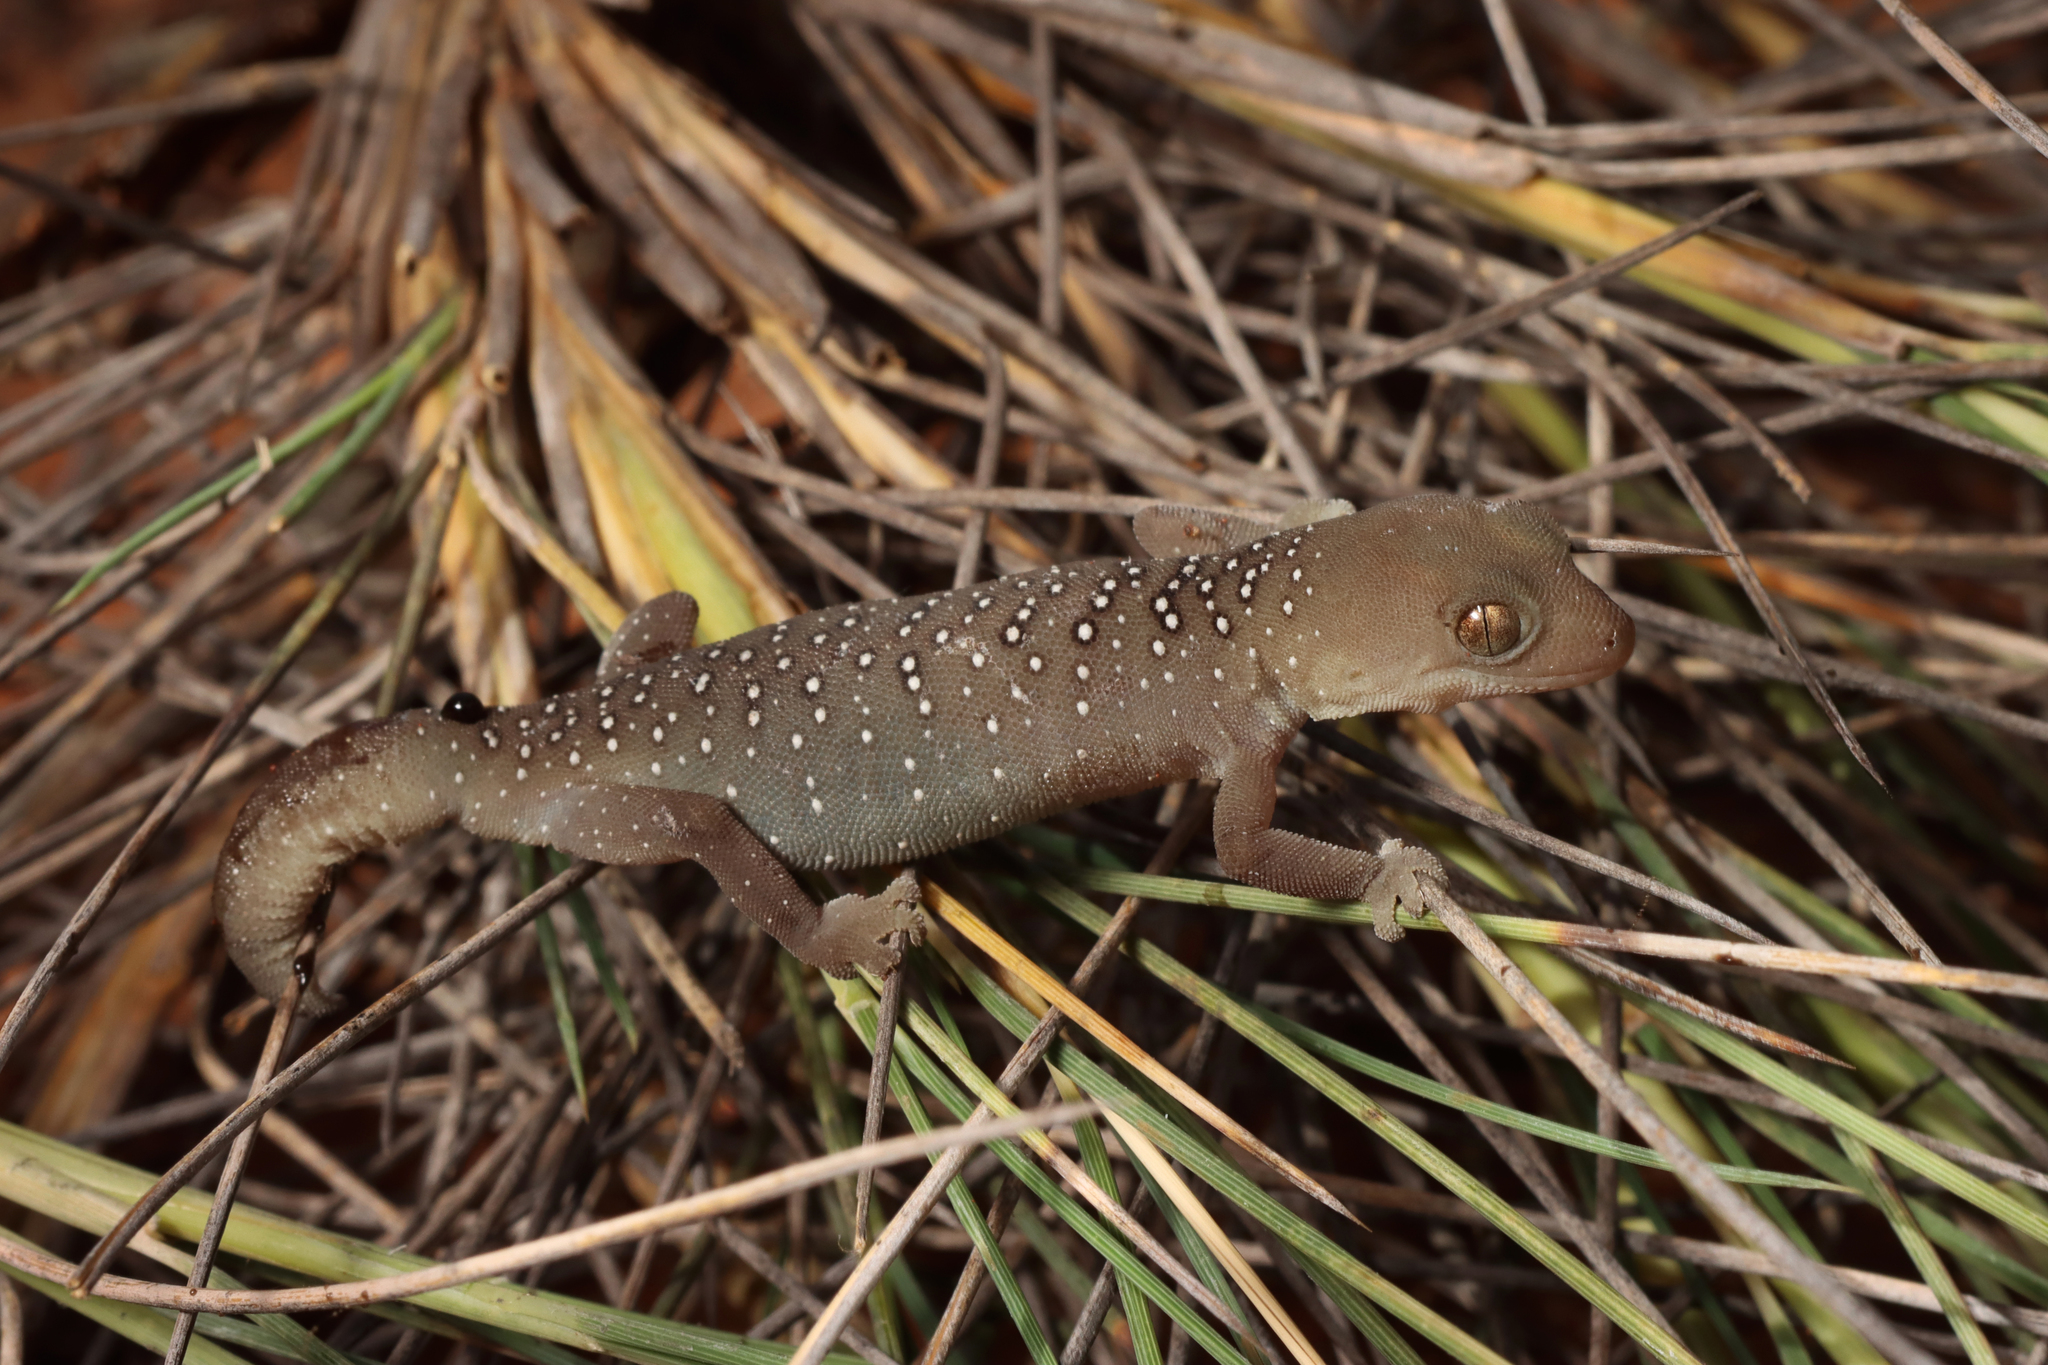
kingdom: Animalia
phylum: Chordata
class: Squamata
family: Diplodactylidae
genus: Strophurus
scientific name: Strophurus elderi
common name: Jewelled gecko
